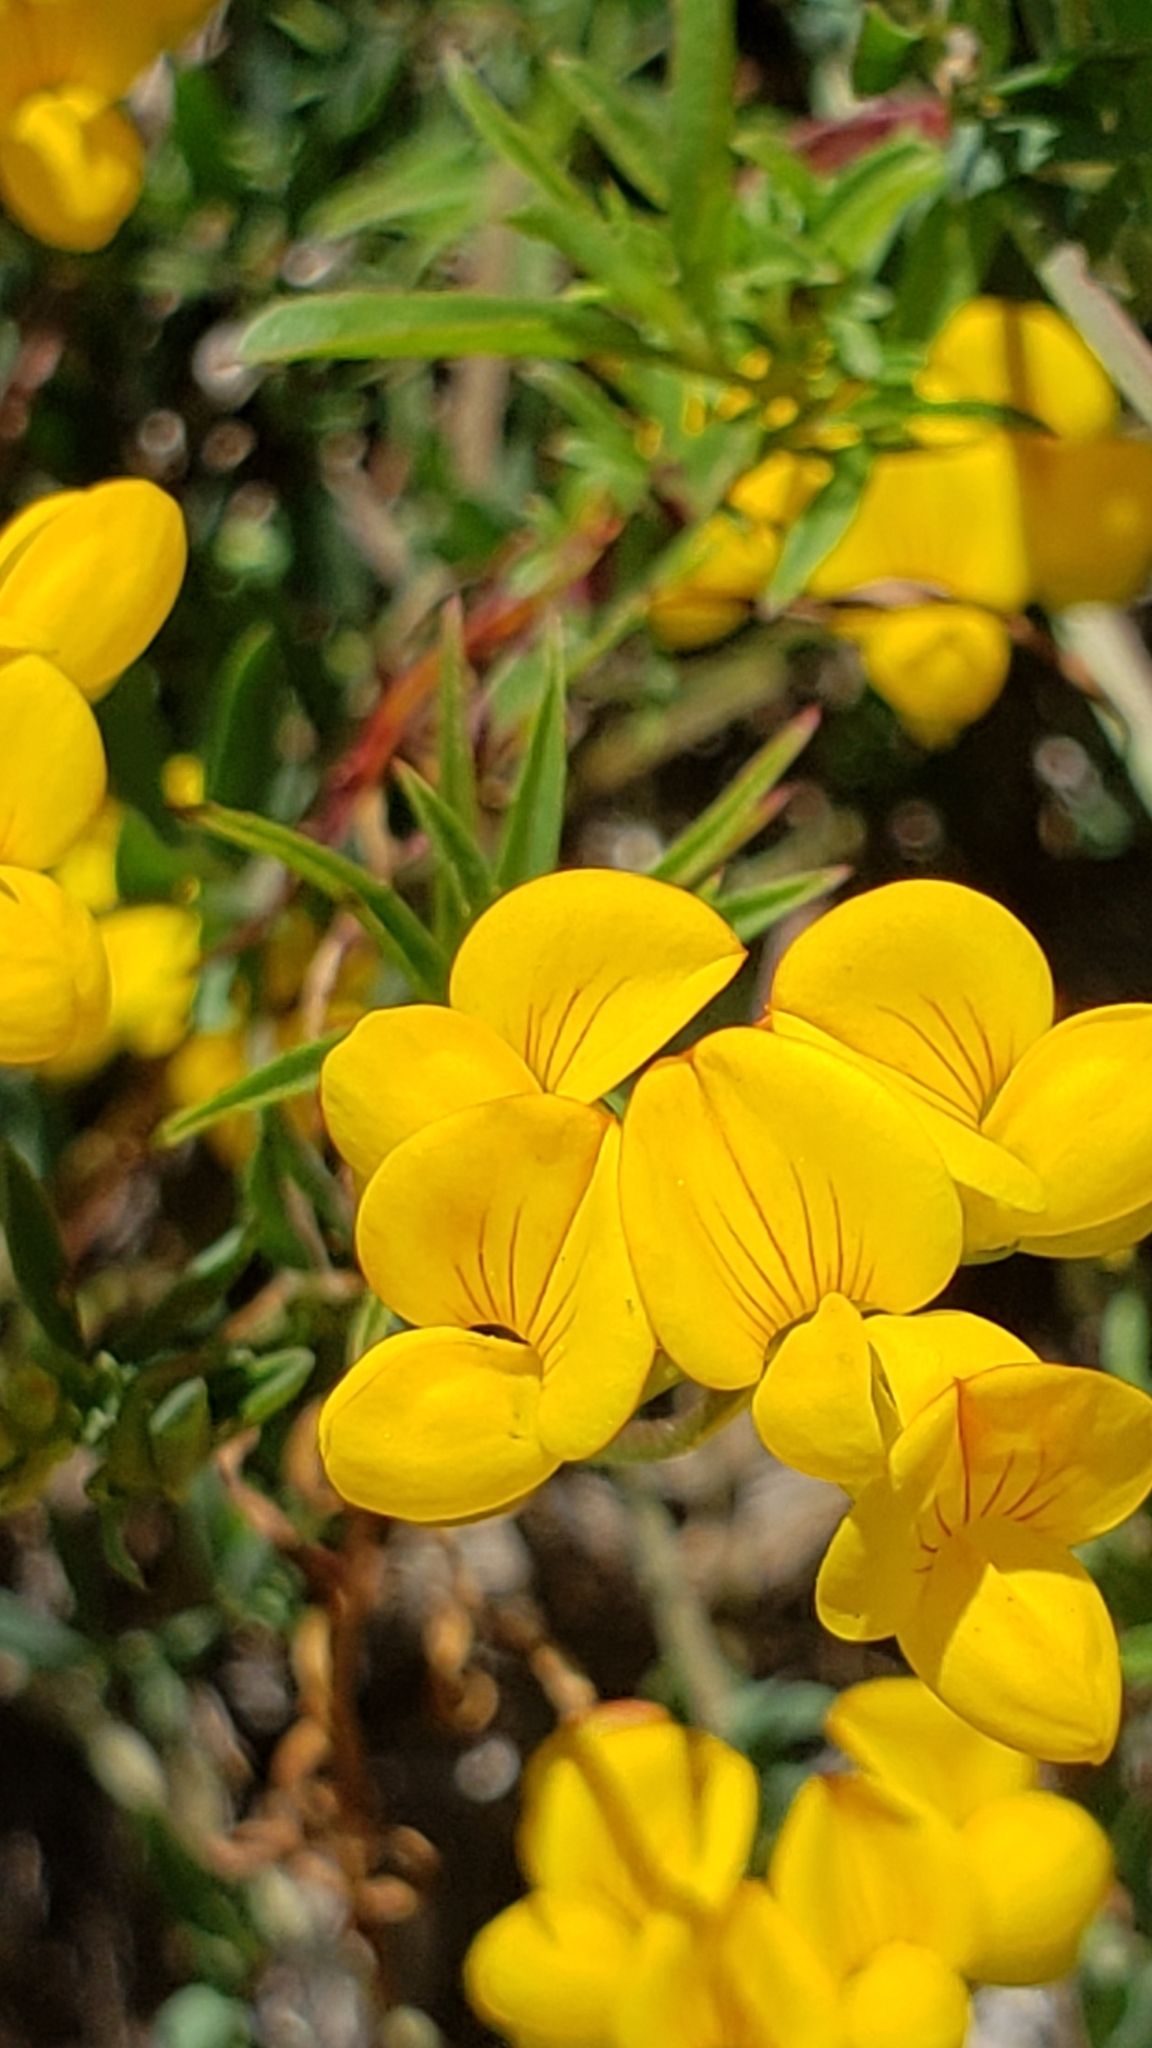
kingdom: Plantae
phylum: Tracheophyta
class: Magnoliopsida
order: Fabales
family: Fabaceae
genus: Lotus
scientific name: Lotus corniculatus
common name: Common bird's-foot-trefoil
